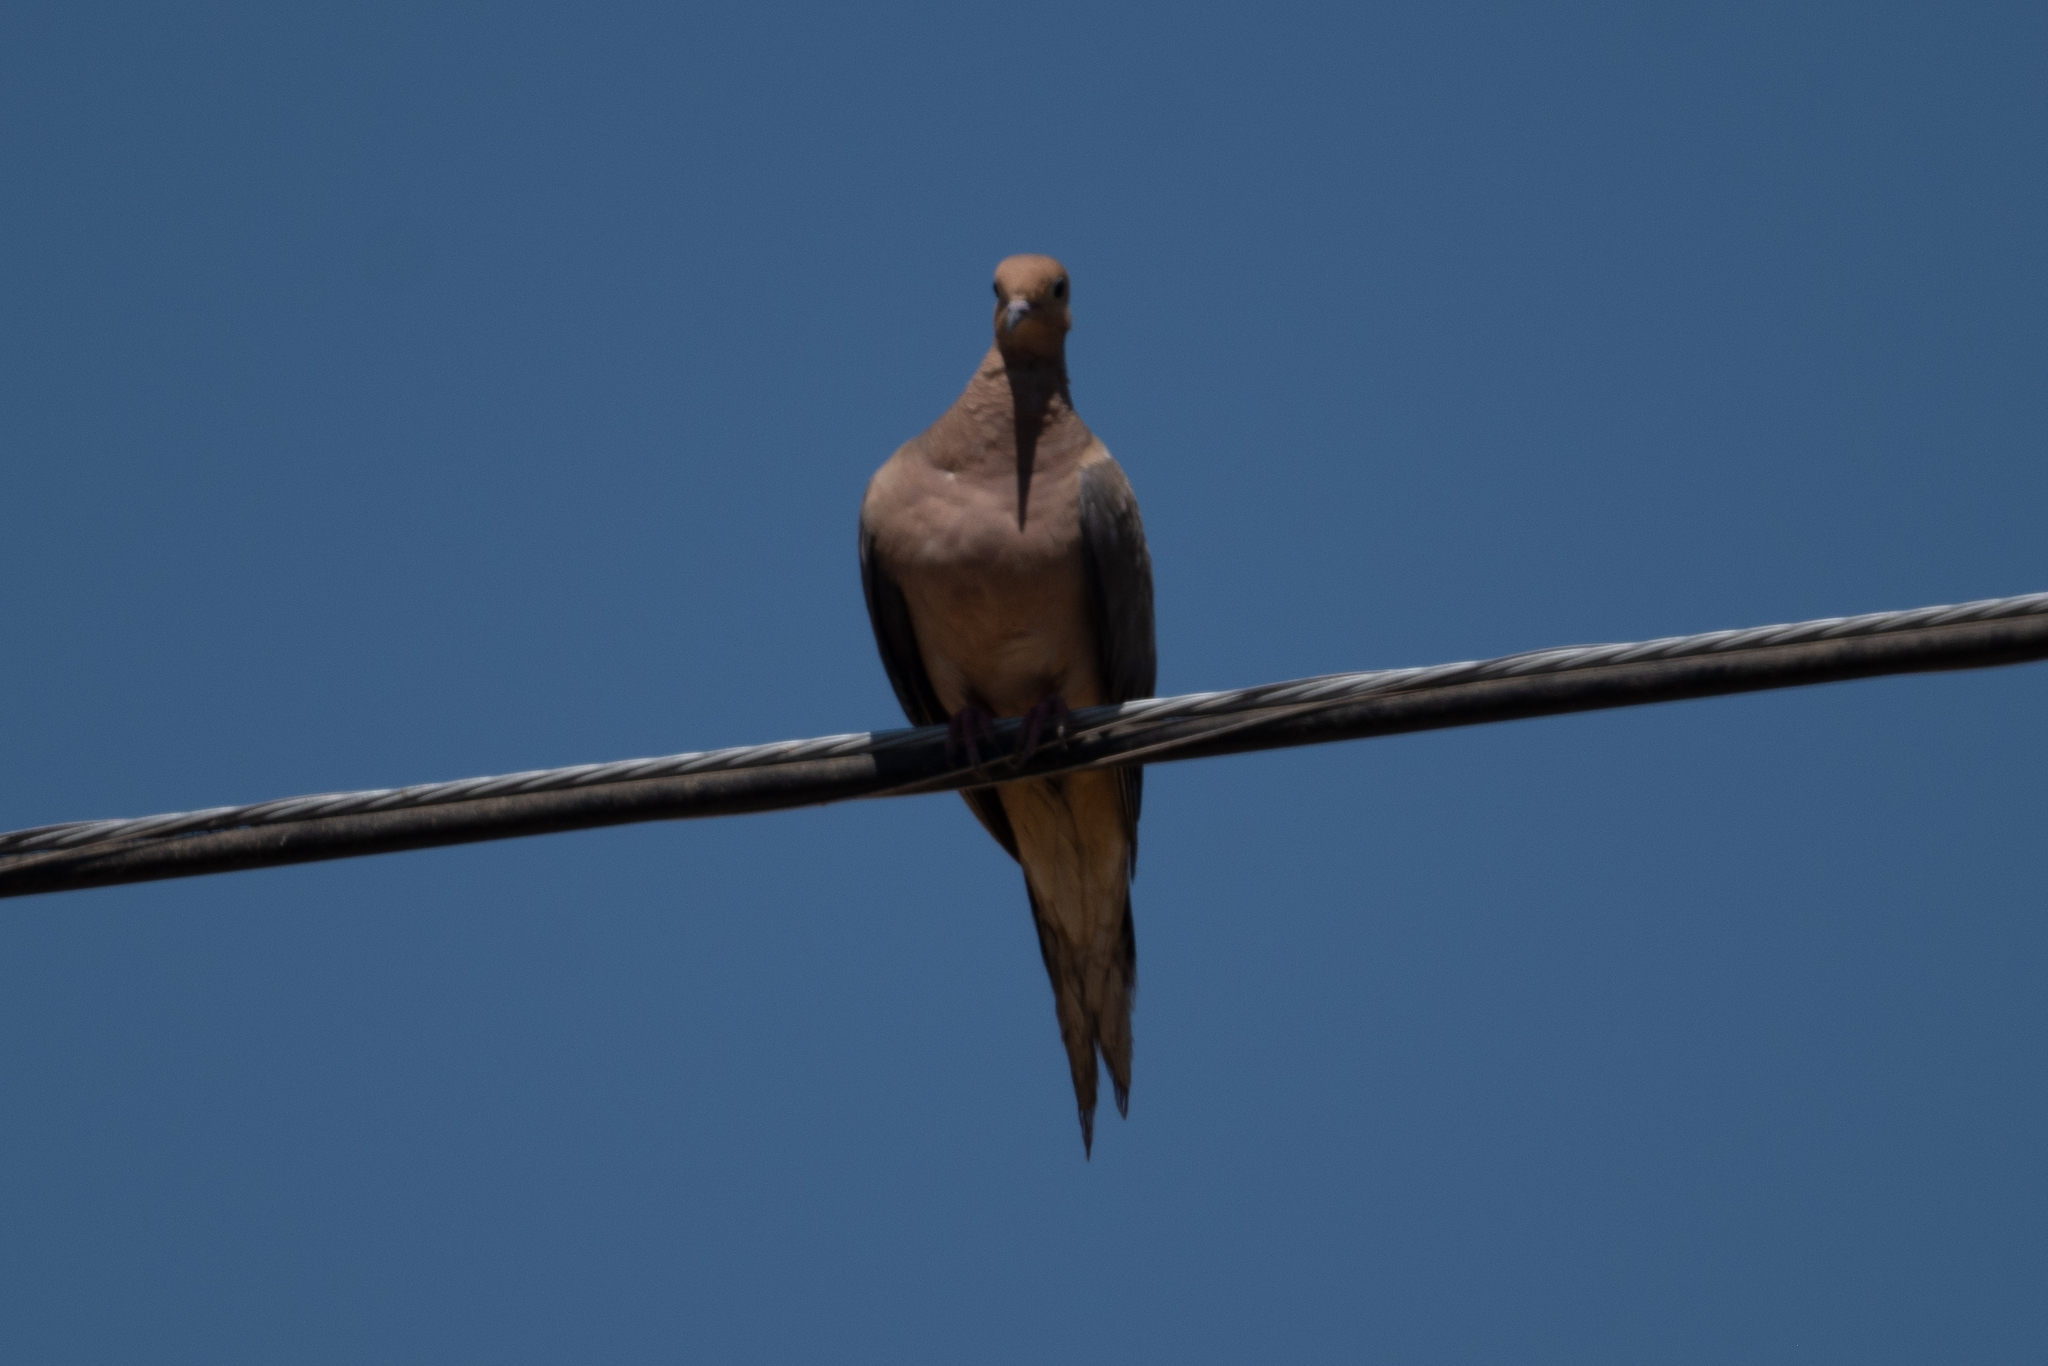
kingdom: Animalia
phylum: Chordata
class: Aves
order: Columbiformes
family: Columbidae
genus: Zenaida
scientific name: Zenaida macroura
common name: Mourning dove
